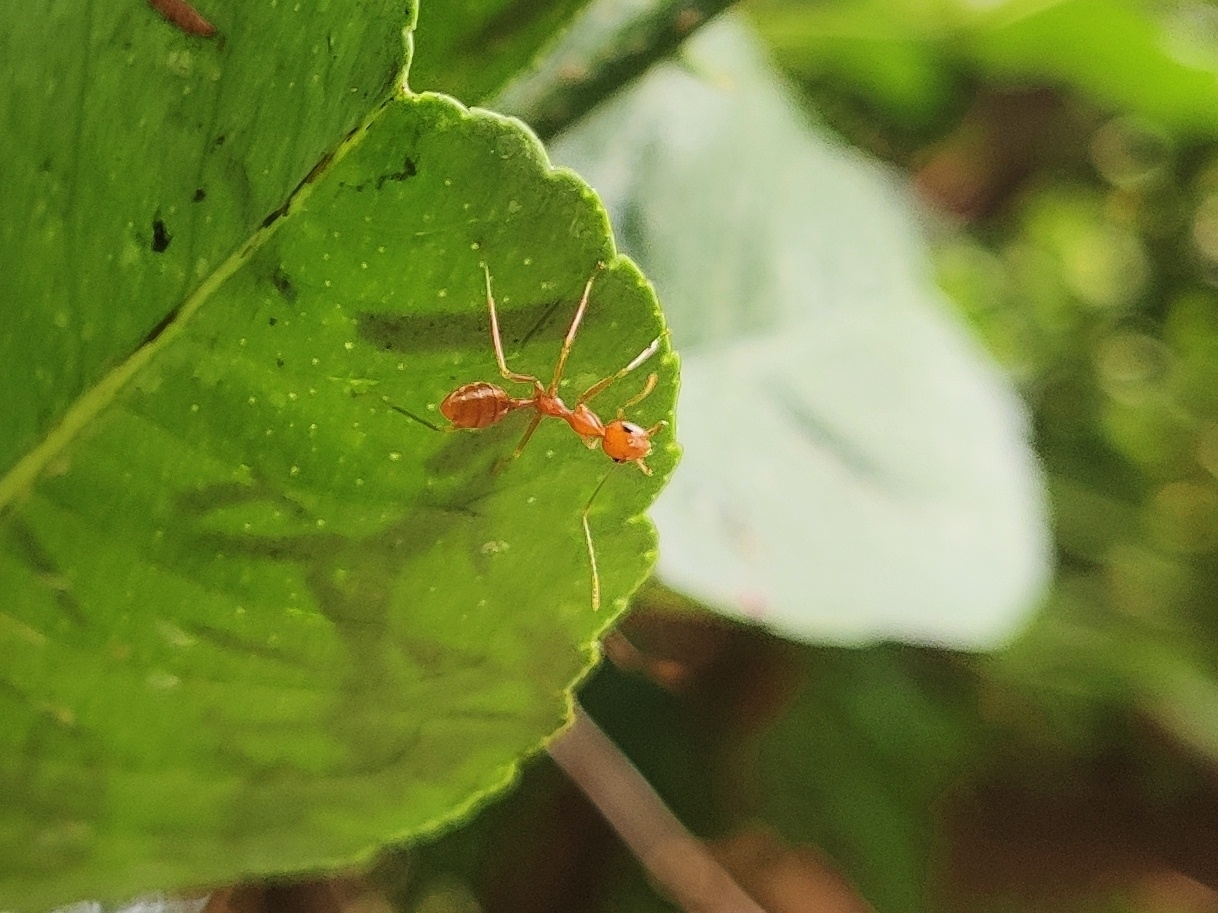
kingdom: Animalia
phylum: Arthropoda
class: Insecta
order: Hymenoptera
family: Formicidae
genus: Oecophylla
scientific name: Oecophylla smaragdina
